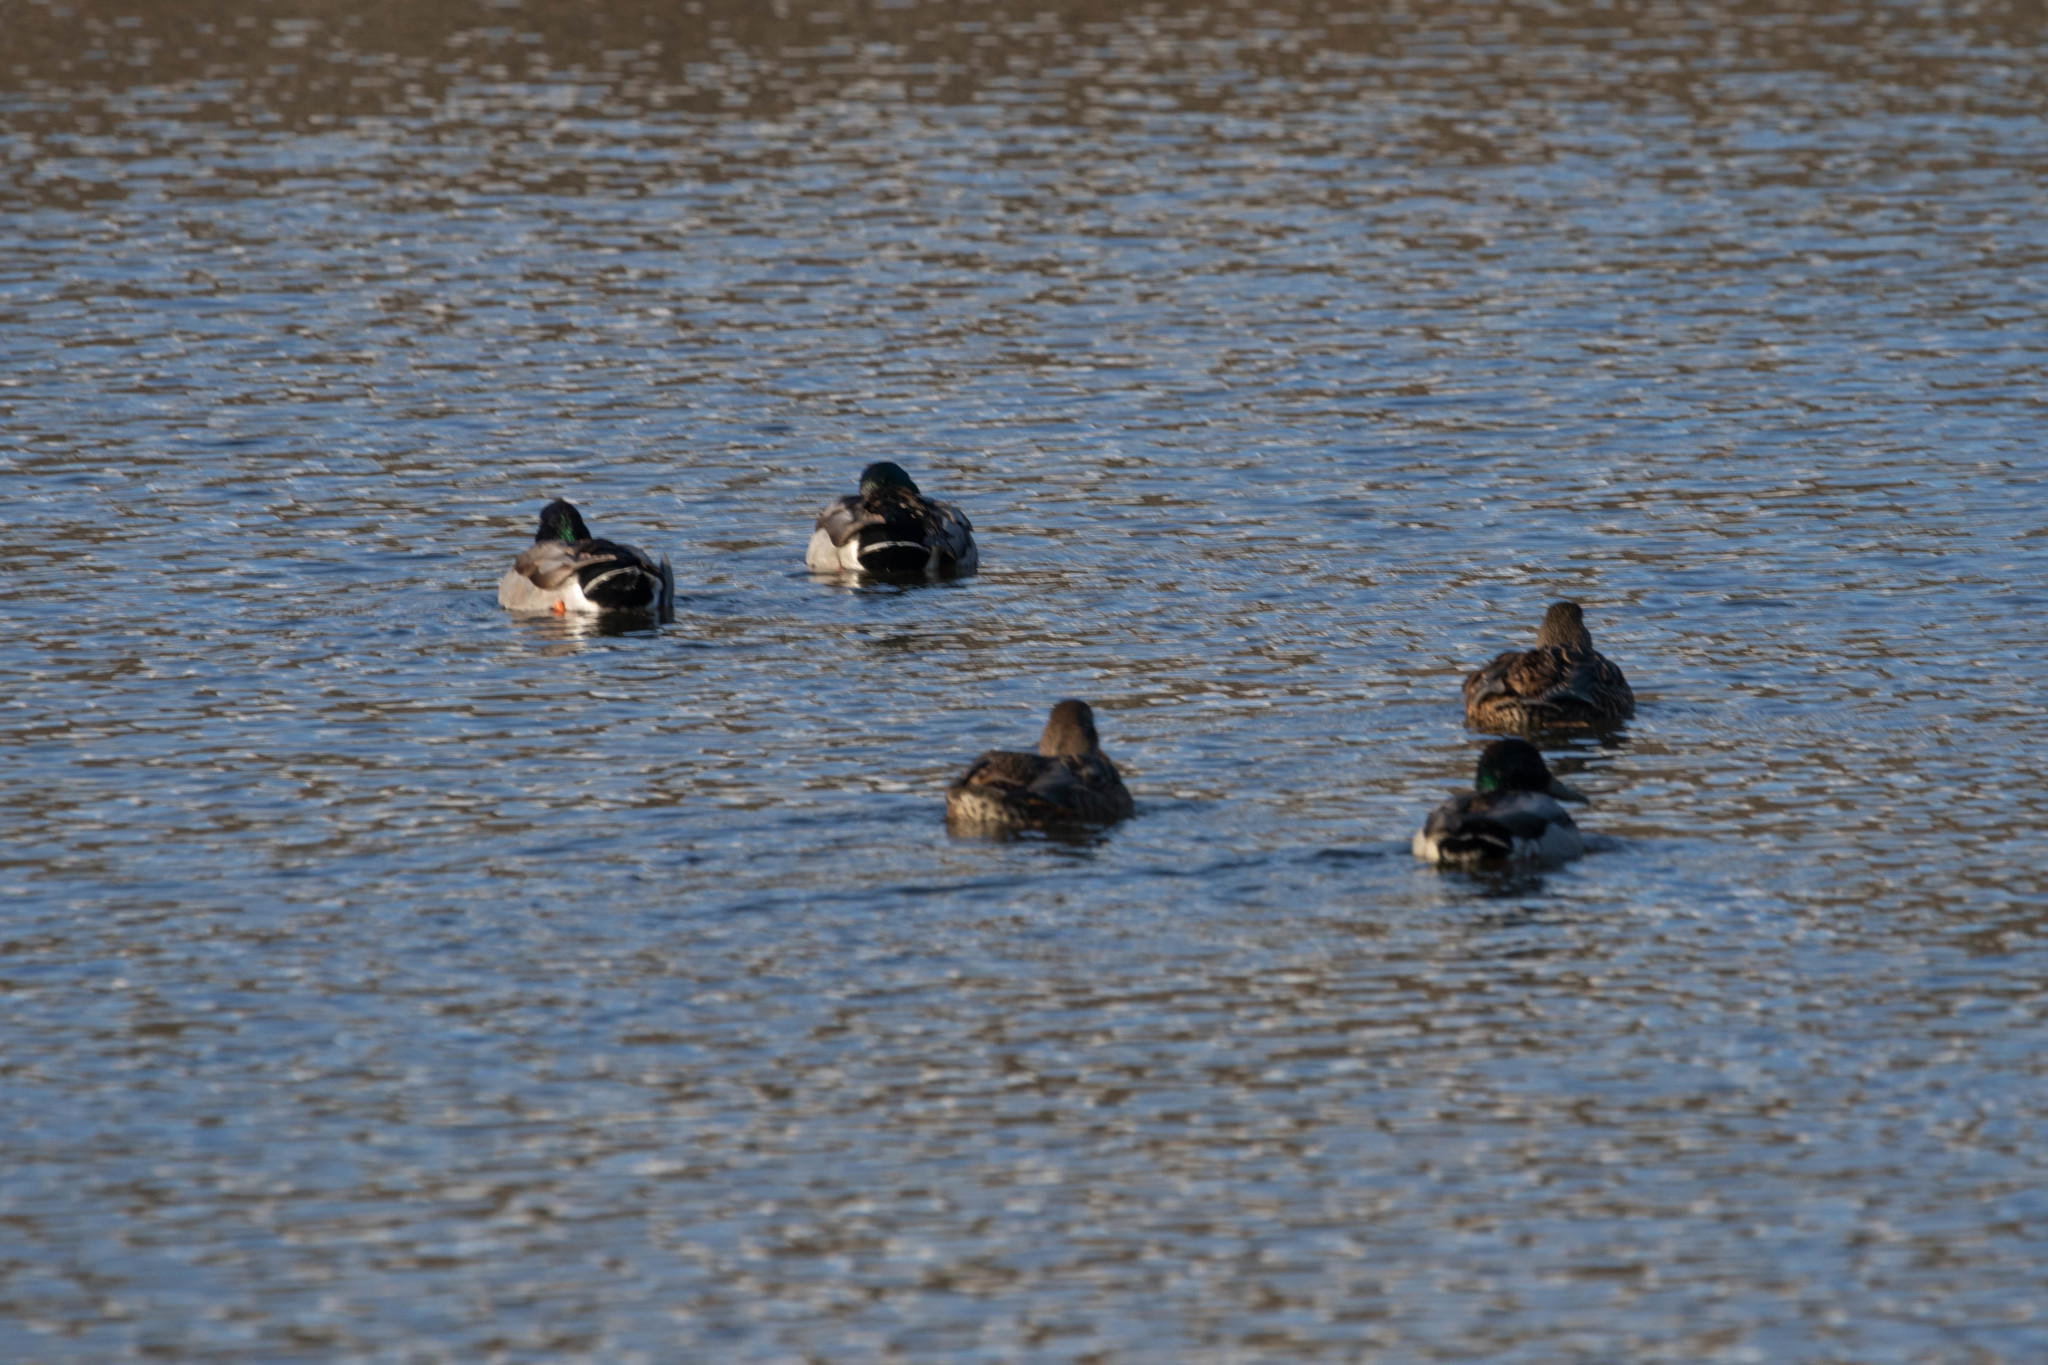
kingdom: Animalia
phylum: Chordata
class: Aves
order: Anseriformes
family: Anatidae
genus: Anas
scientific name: Anas platyrhynchos
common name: Mallard
